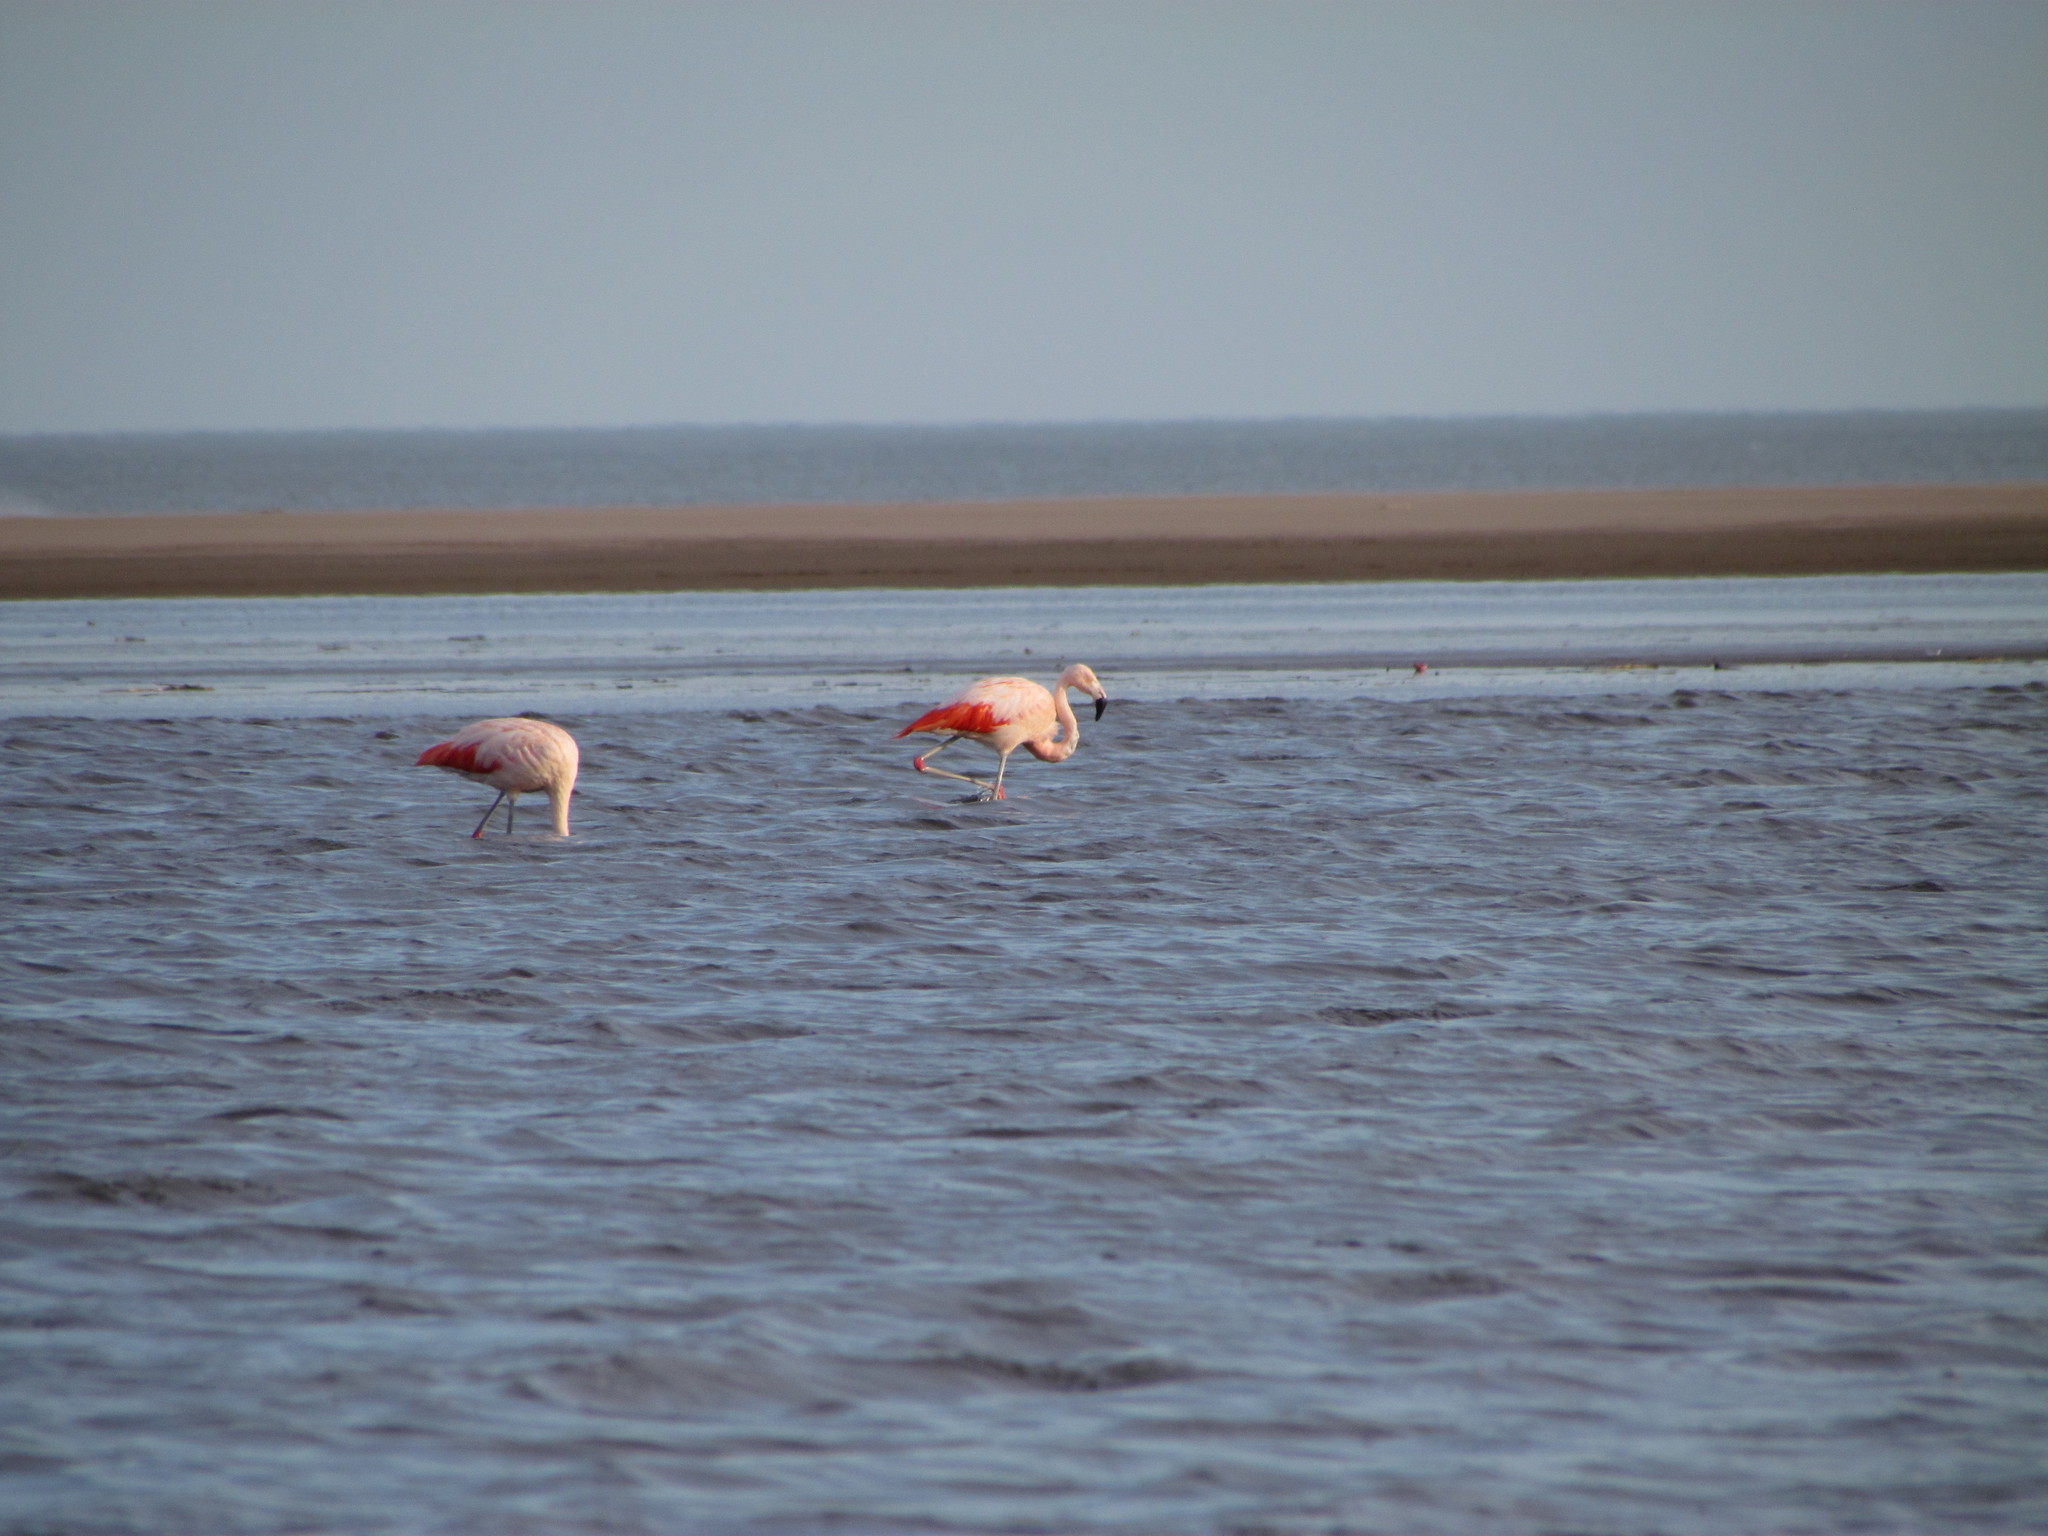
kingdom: Animalia
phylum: Chordata
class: Aves
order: Phoenicopteriformes
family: Phoenicopteridae
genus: Phoenicopterus
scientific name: Phoenicopterus chilensis
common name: Chilean flamingo
